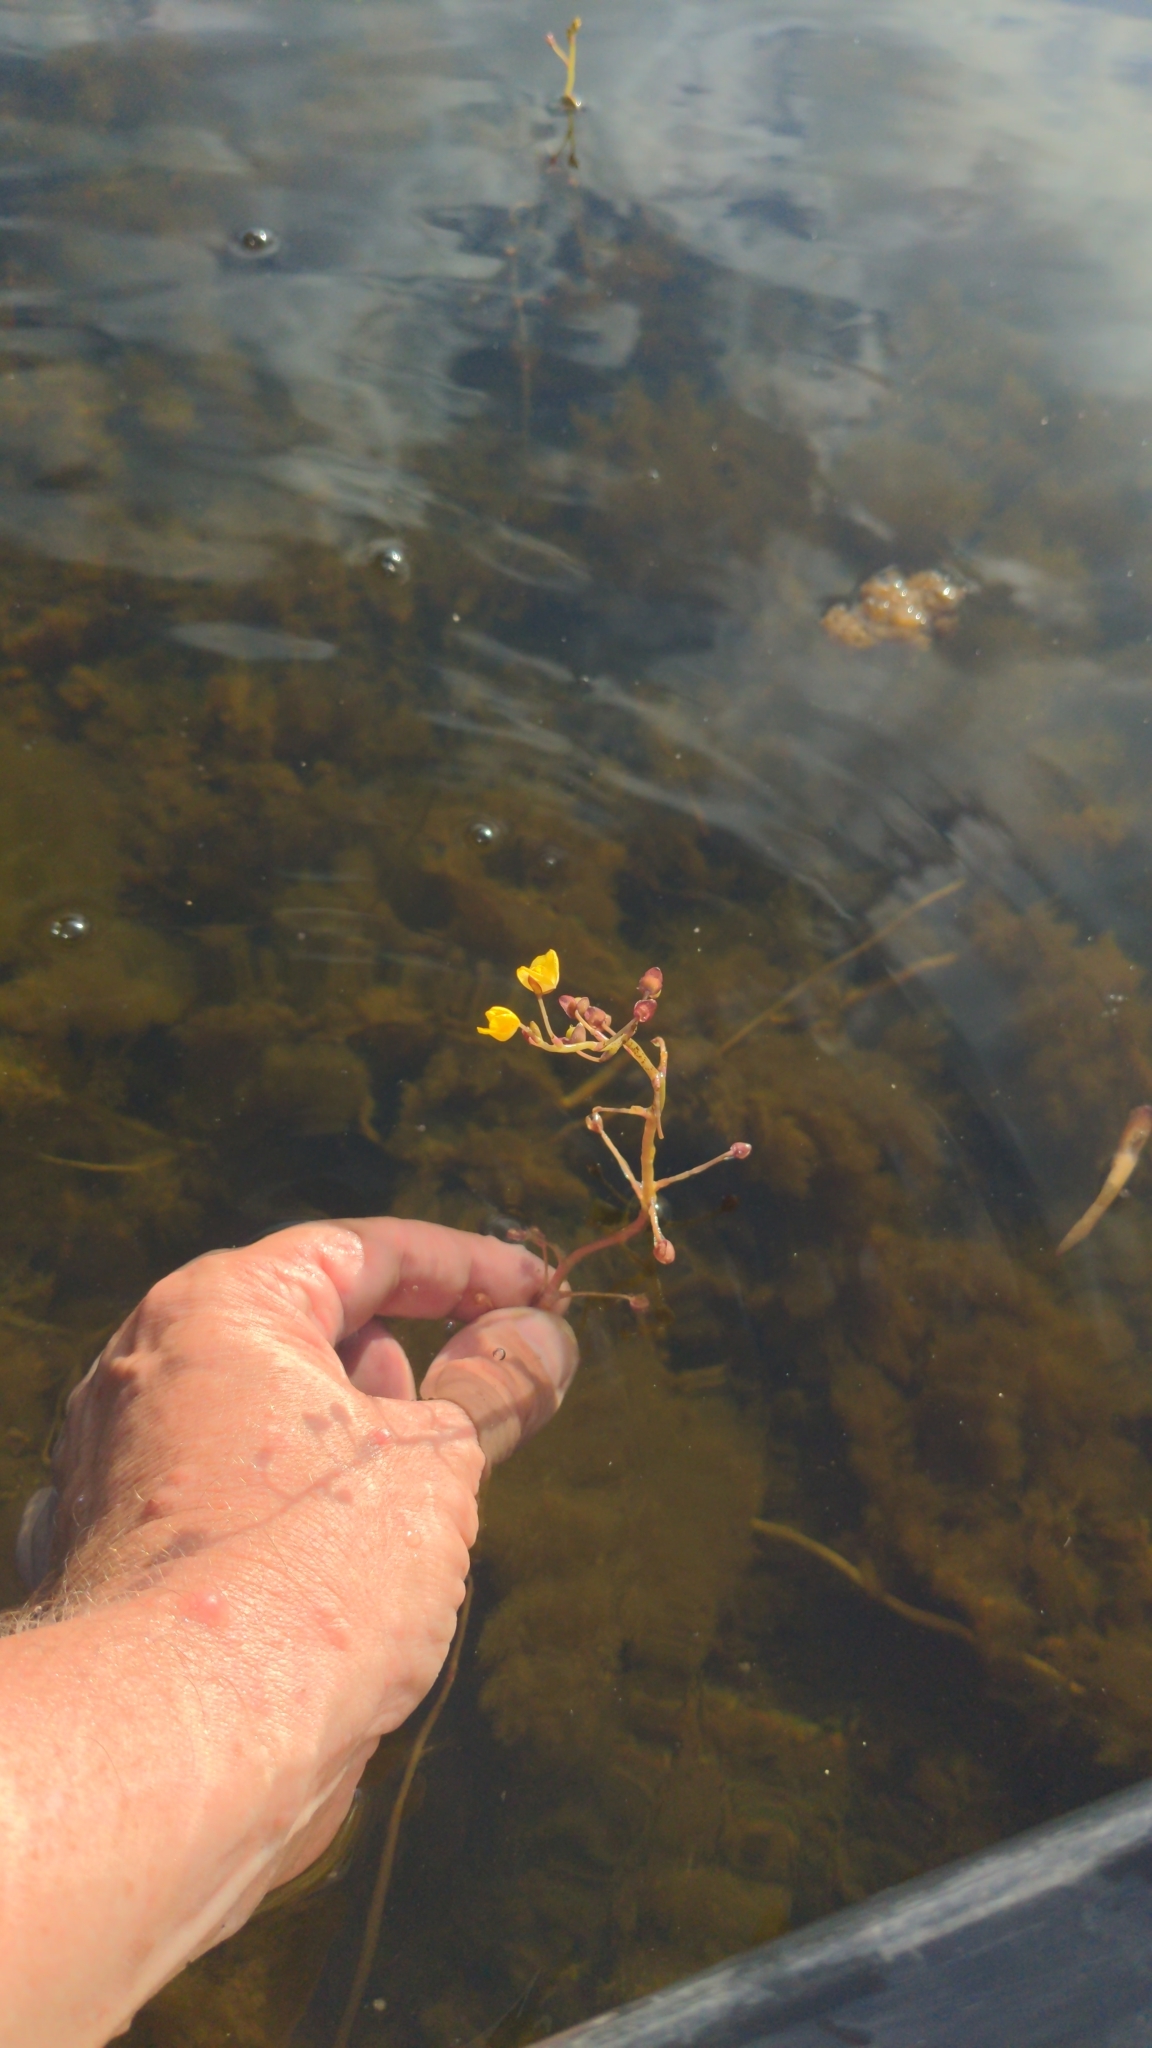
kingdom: Plantae
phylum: Tracheophyta
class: Magnoliopsida
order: Lamiales
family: Lentibulariaceae
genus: Utricularia
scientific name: Utricularia foliosa
